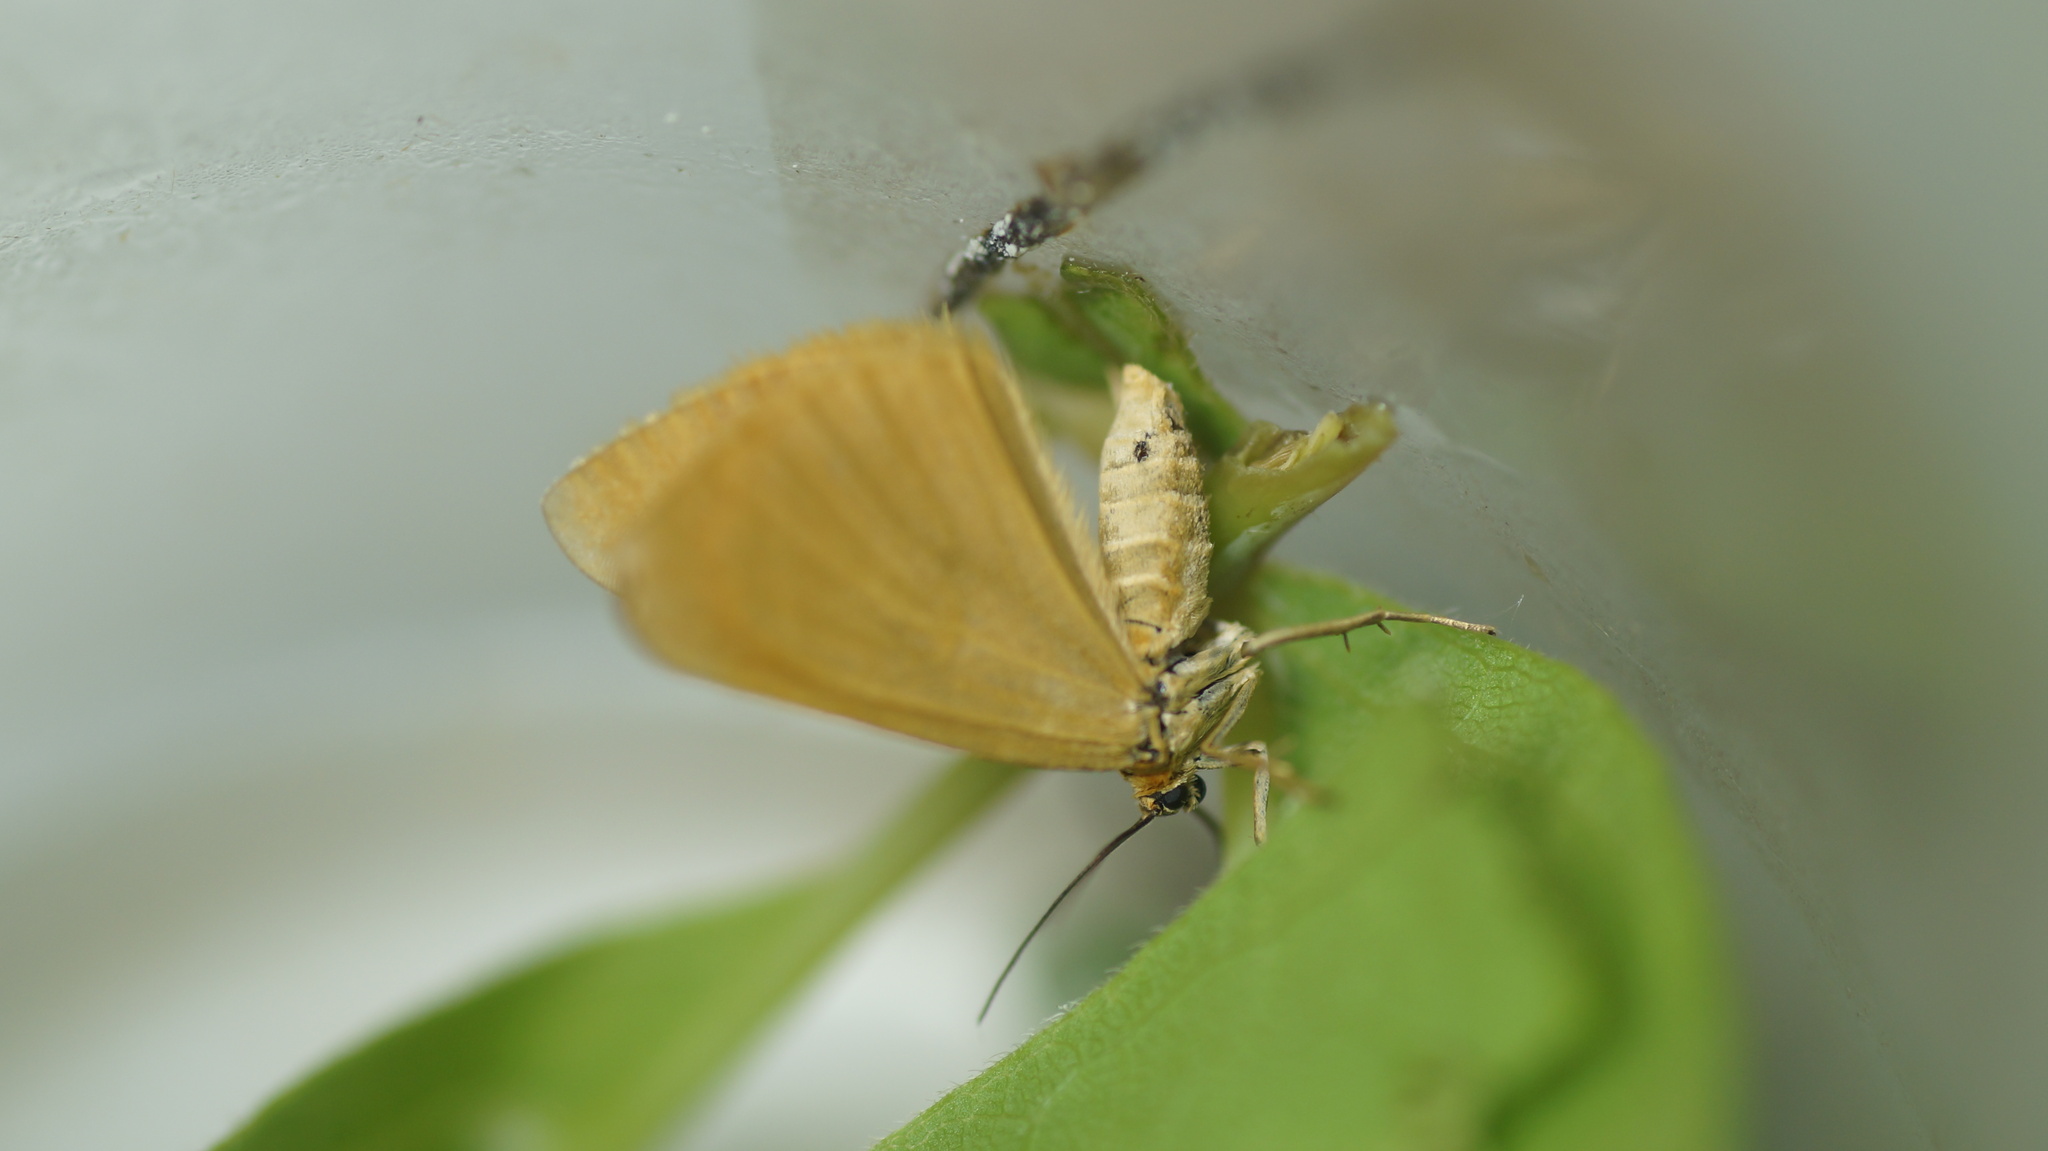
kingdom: Animalia
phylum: Arthropoda
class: Insecta
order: Lepidoptera
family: Geometridae
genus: Minoa
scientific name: Minoa murinata
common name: Drab looper
